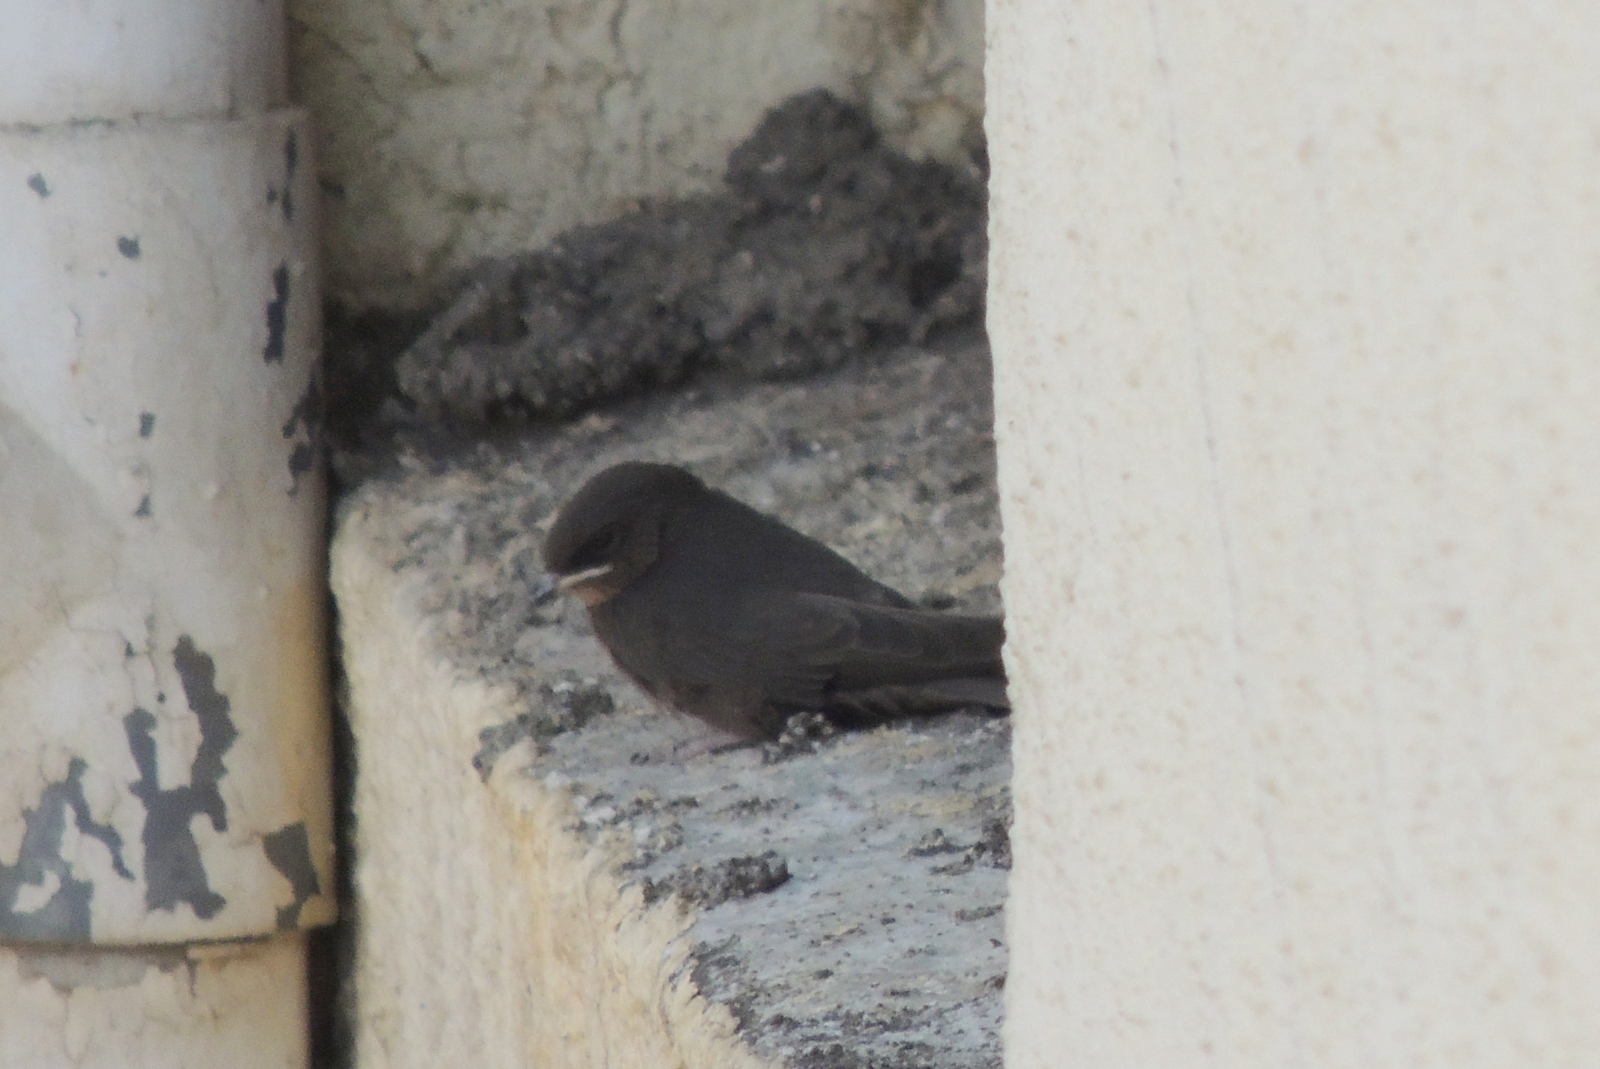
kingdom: Animalia
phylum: Chordata
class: Aves
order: Passeriformes
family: Hirundinidae
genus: Ptyonoprogne
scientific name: Ptyonoprogne concolor
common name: Dusky crag-martin
